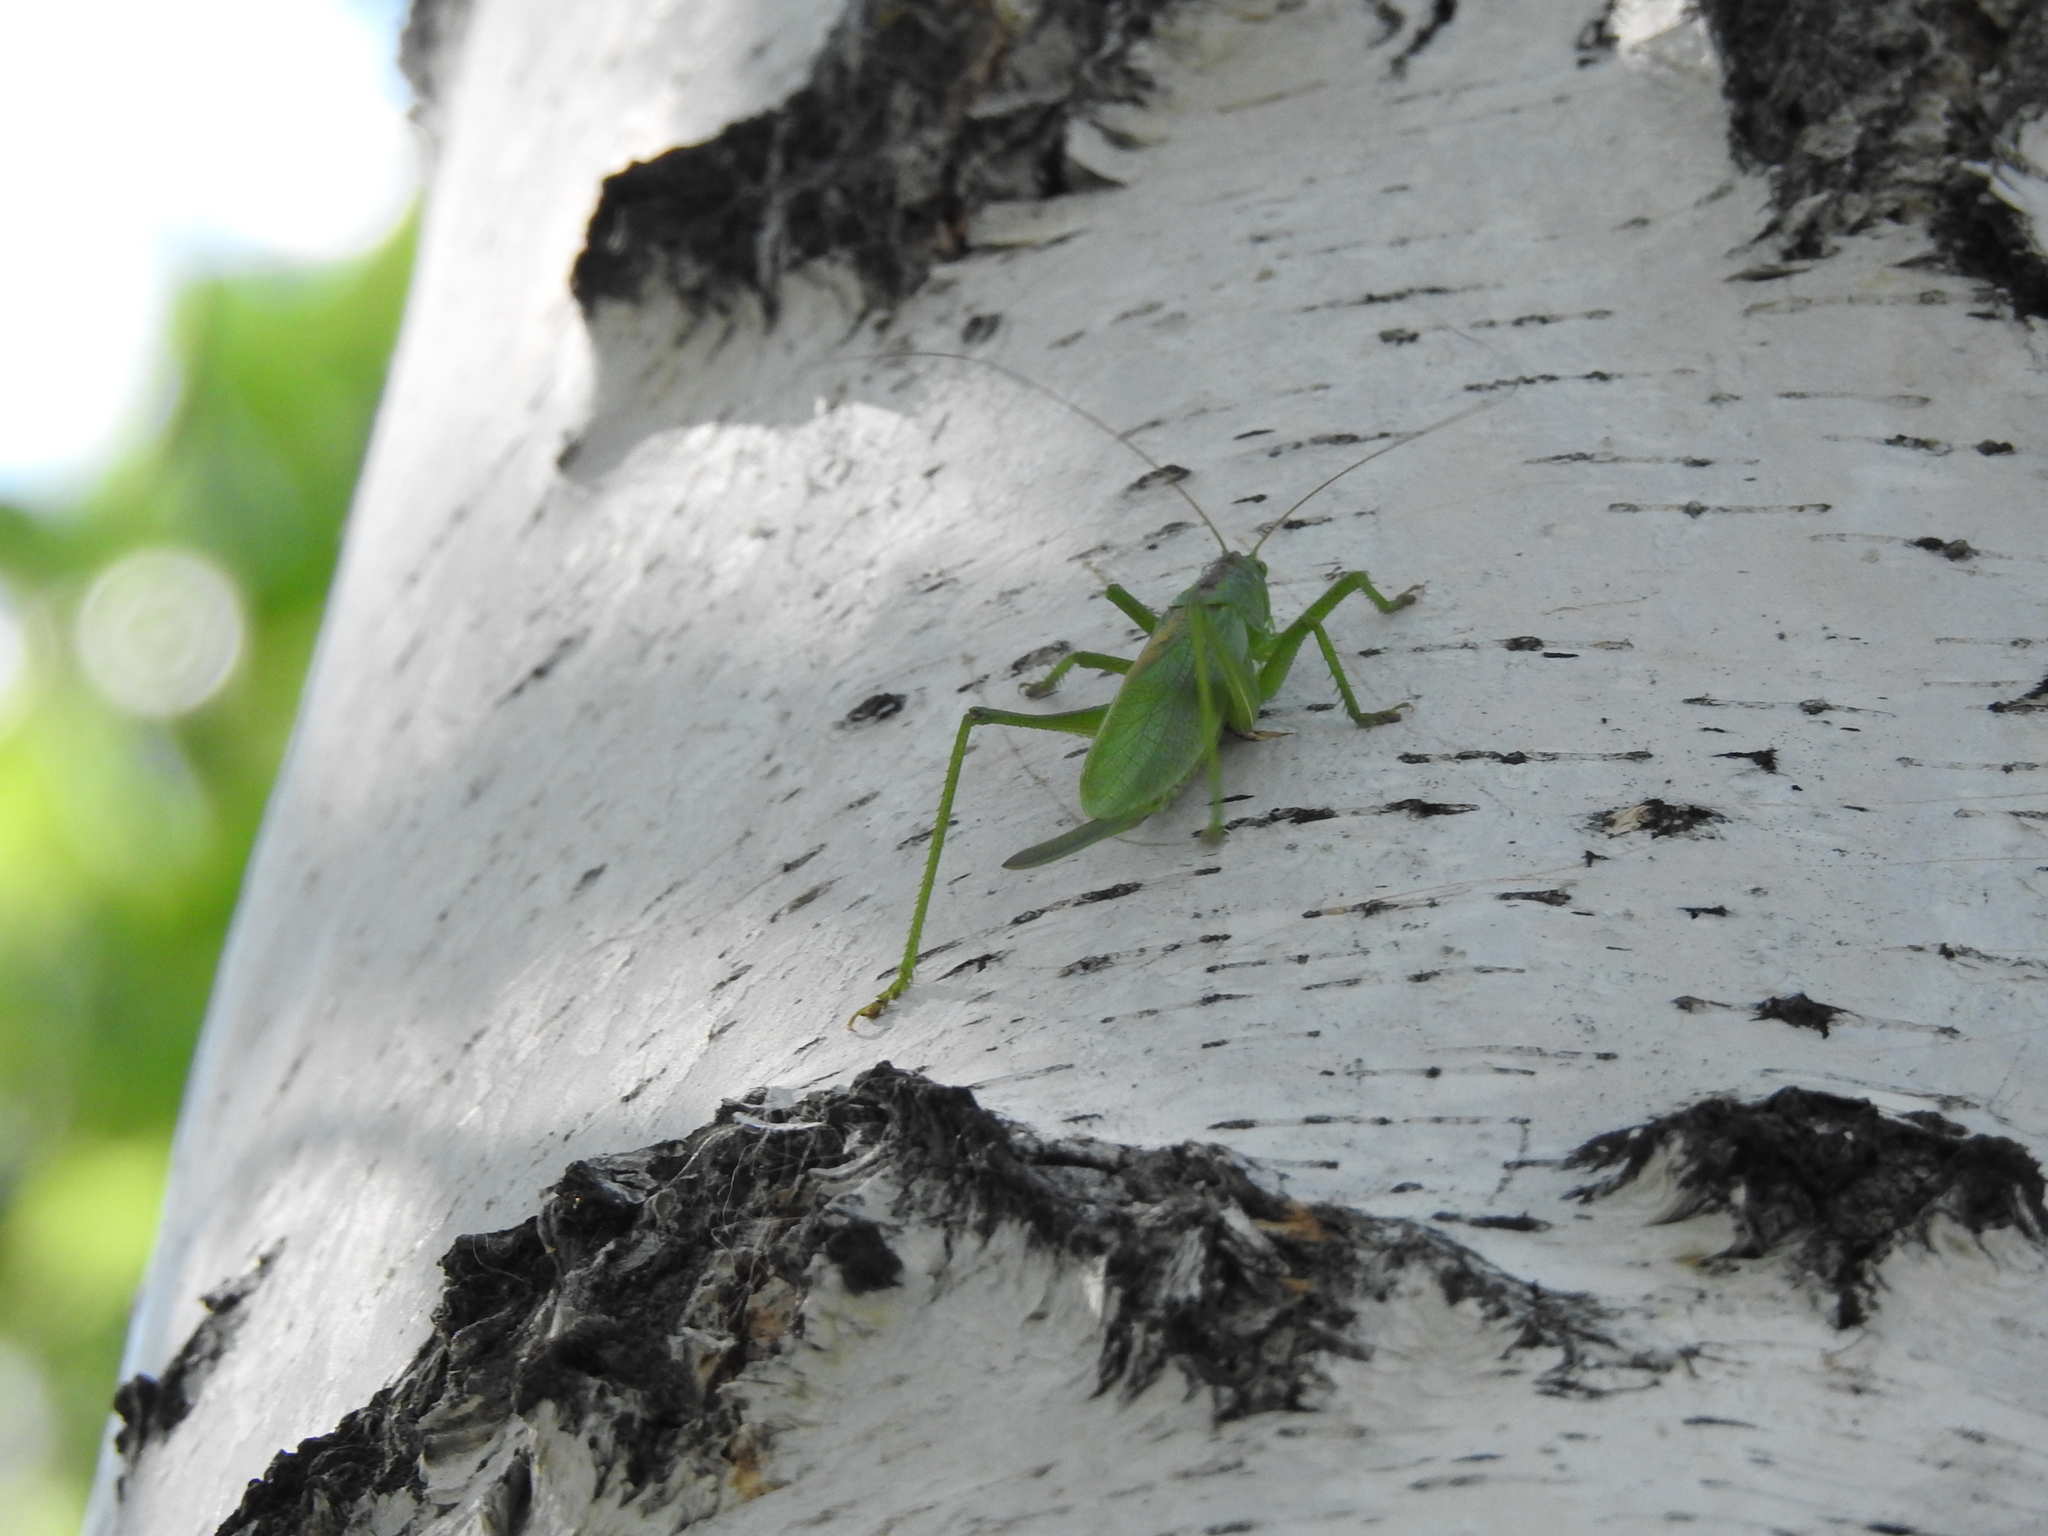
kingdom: Animalia
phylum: Arthropoda
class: Insecta
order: Orthoptera
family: Tettigoniidae
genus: Tettigonia
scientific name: Tettigonia cantans
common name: Upland green bush-cricket
